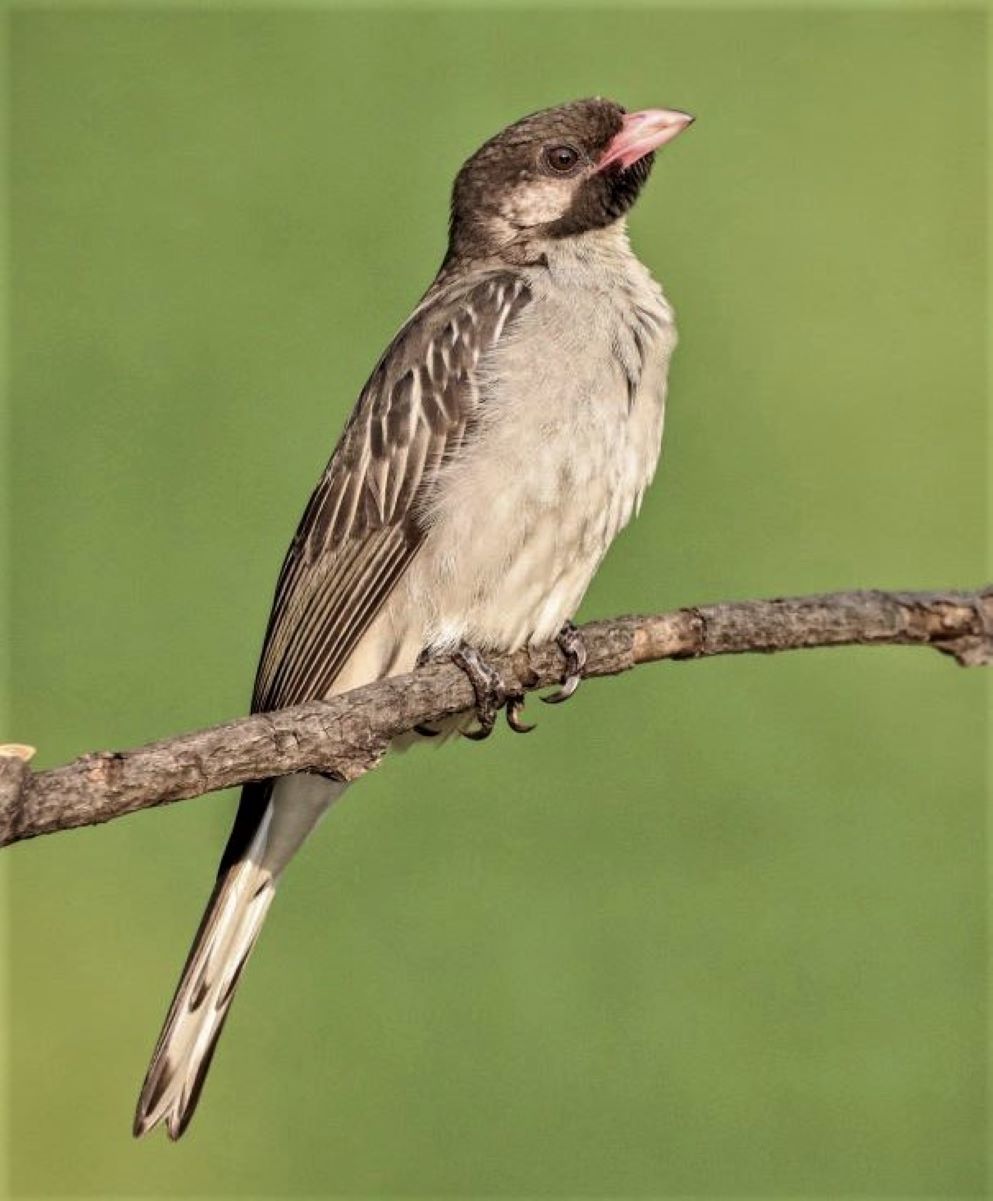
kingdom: Animalia
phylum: Chordata
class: Aves
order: Piciformes
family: Indicatoridae
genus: Indicator
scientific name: Indicator indicator
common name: Greater honeyguide
